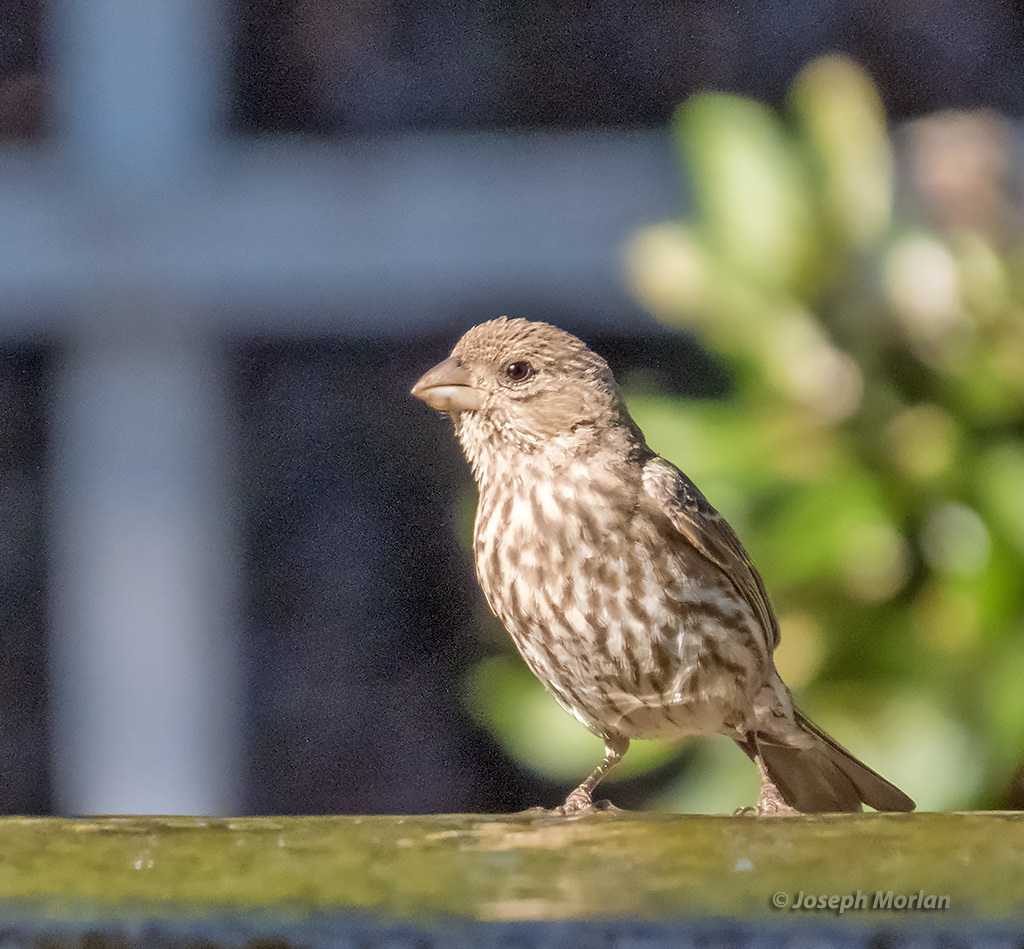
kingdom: Animalia
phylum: Chordata
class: Aves
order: Passeriformes
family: Fringillidae
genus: Haemorhous
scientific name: Haemorhous mexicanus
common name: House finch
